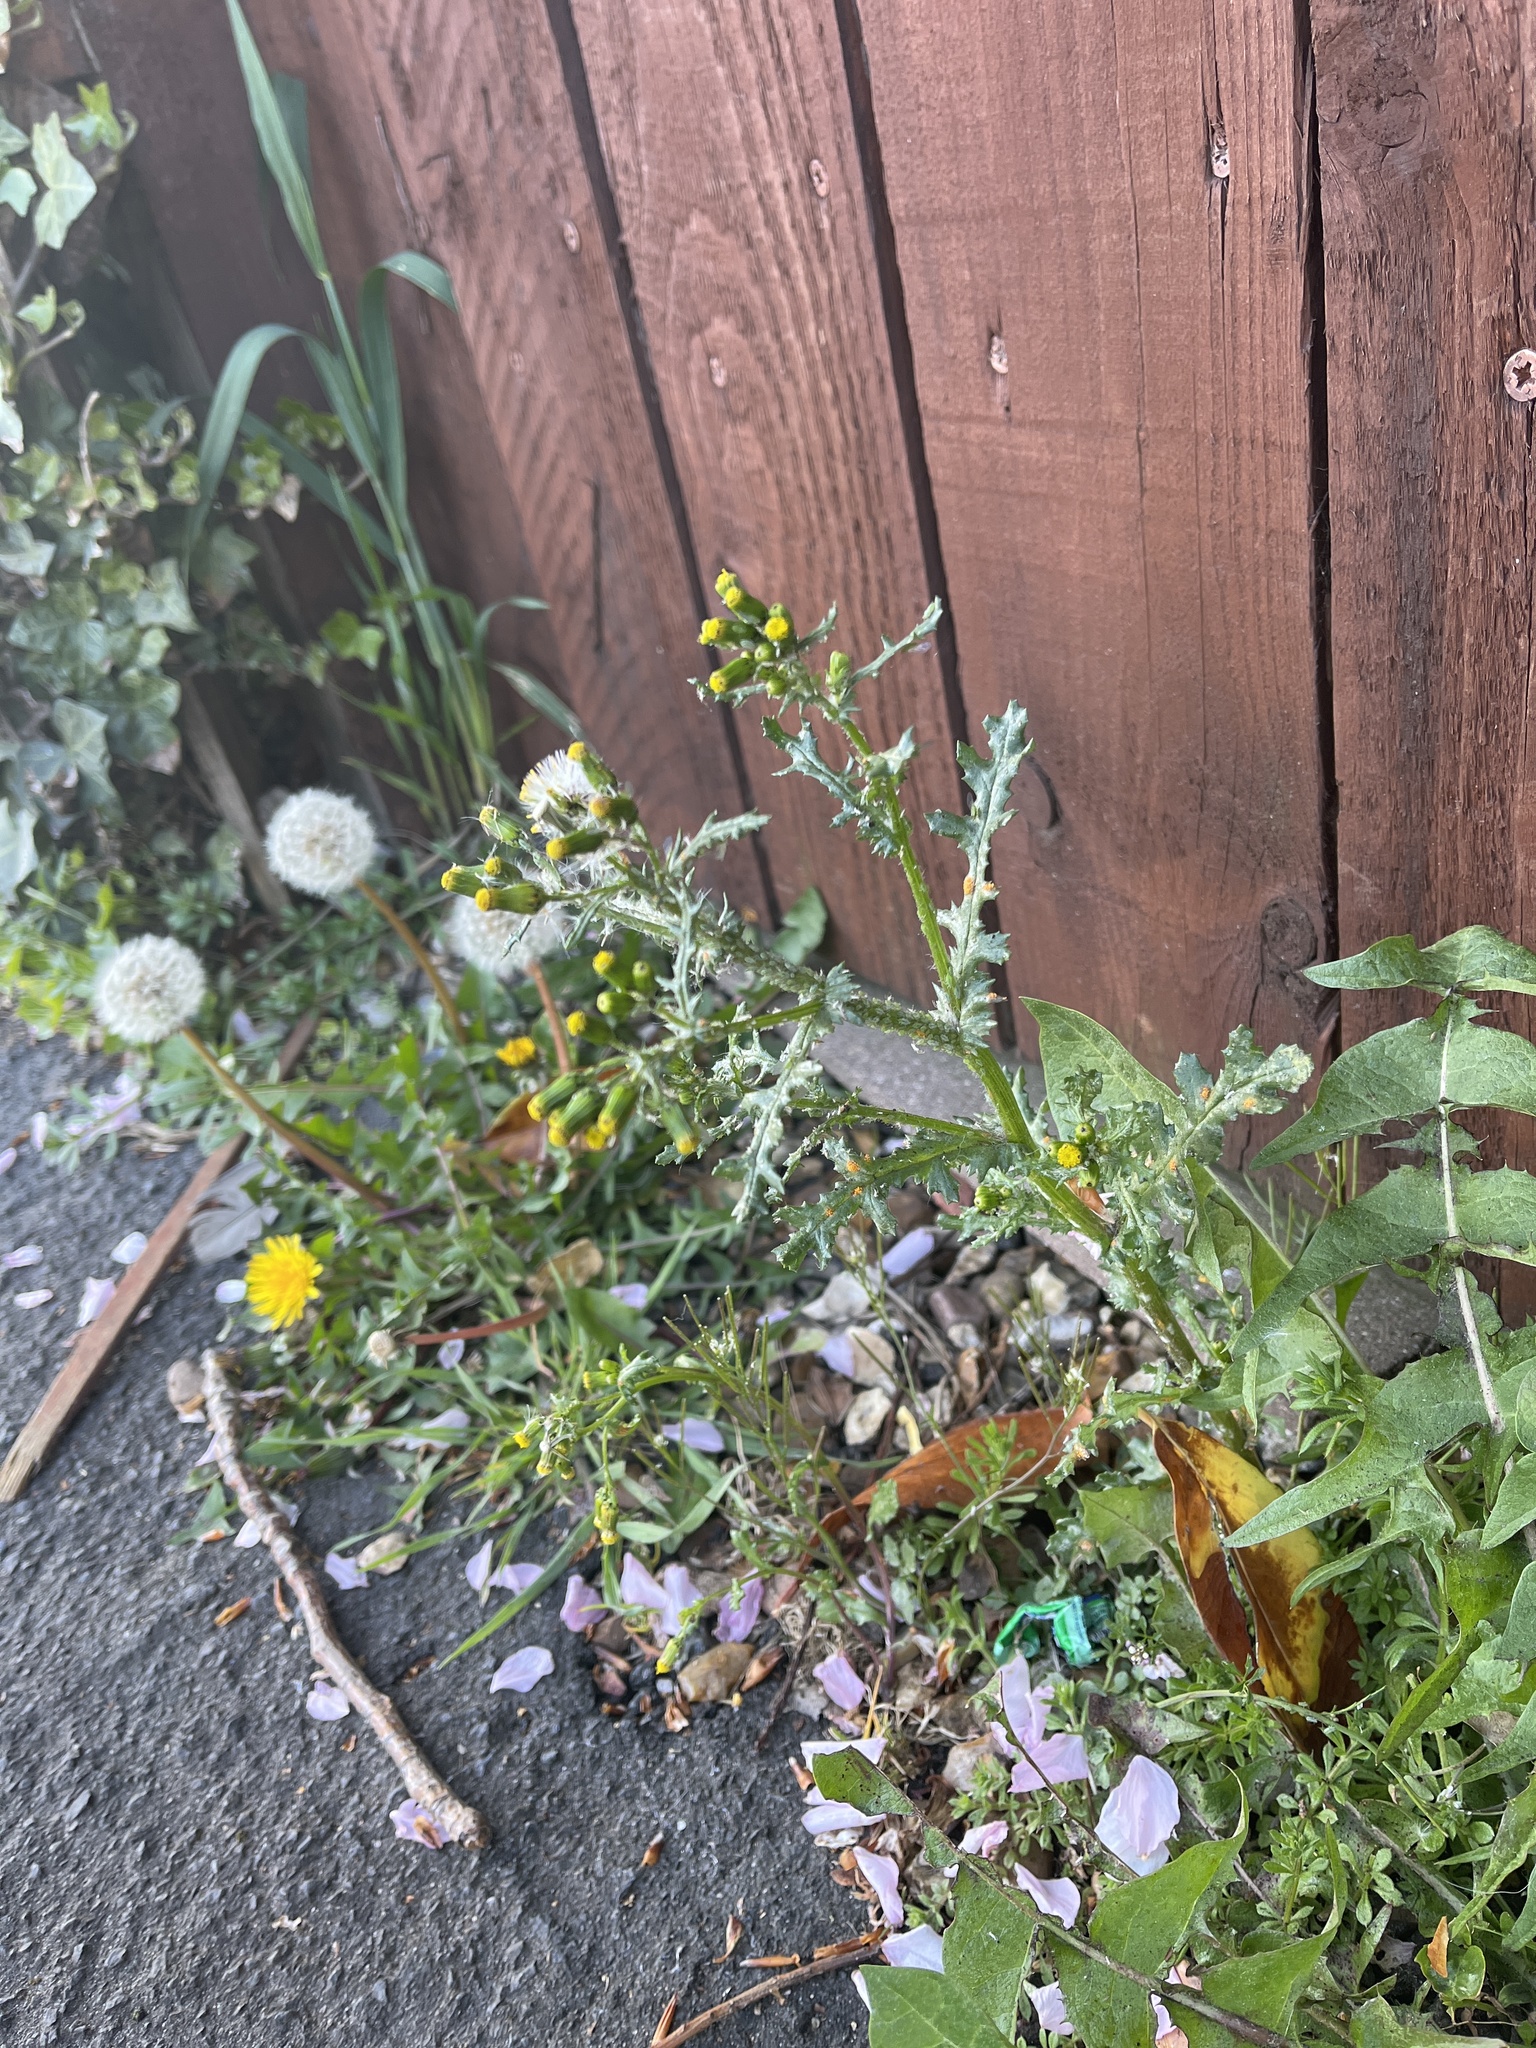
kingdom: Plantae
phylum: Tracheophyta
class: Magnoliopsida
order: Asterales
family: Asteraceae
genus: Senecio
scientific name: Senecio vulgaris
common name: Old-man-in-the-spring
